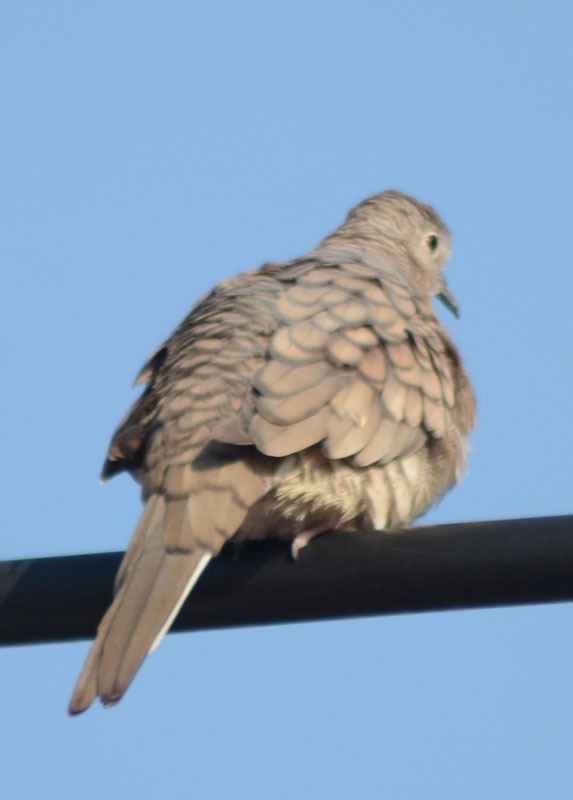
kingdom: Animalia
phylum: Chordata
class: Aves
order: Columbiformes
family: Columbidae
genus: Columbina
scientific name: Columbina inca
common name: Inca dove
